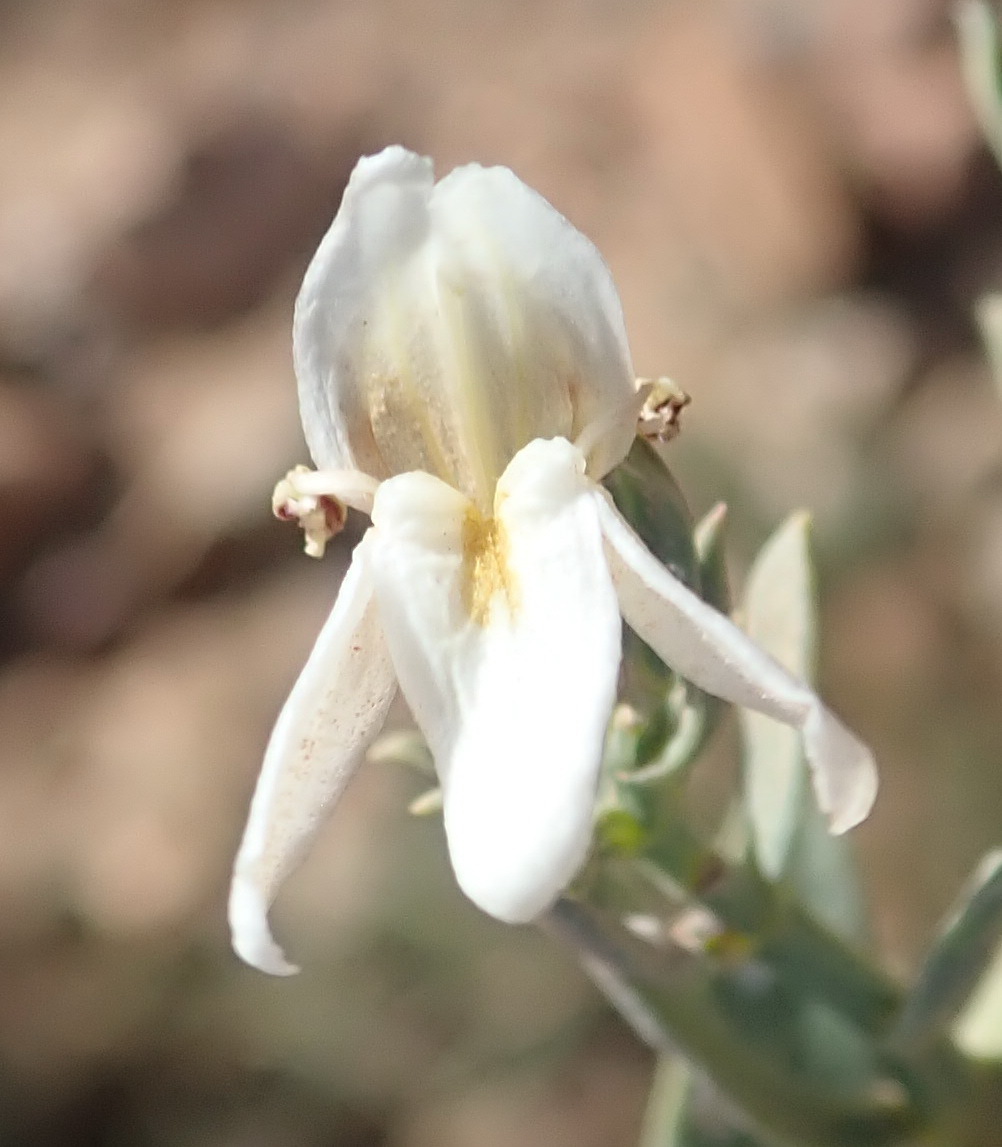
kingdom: Plantae
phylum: Tracheophyta
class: Magnoliopsida
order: Lamiales
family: Acanthaceae
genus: Pogonospermum
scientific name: Pogonospermum
